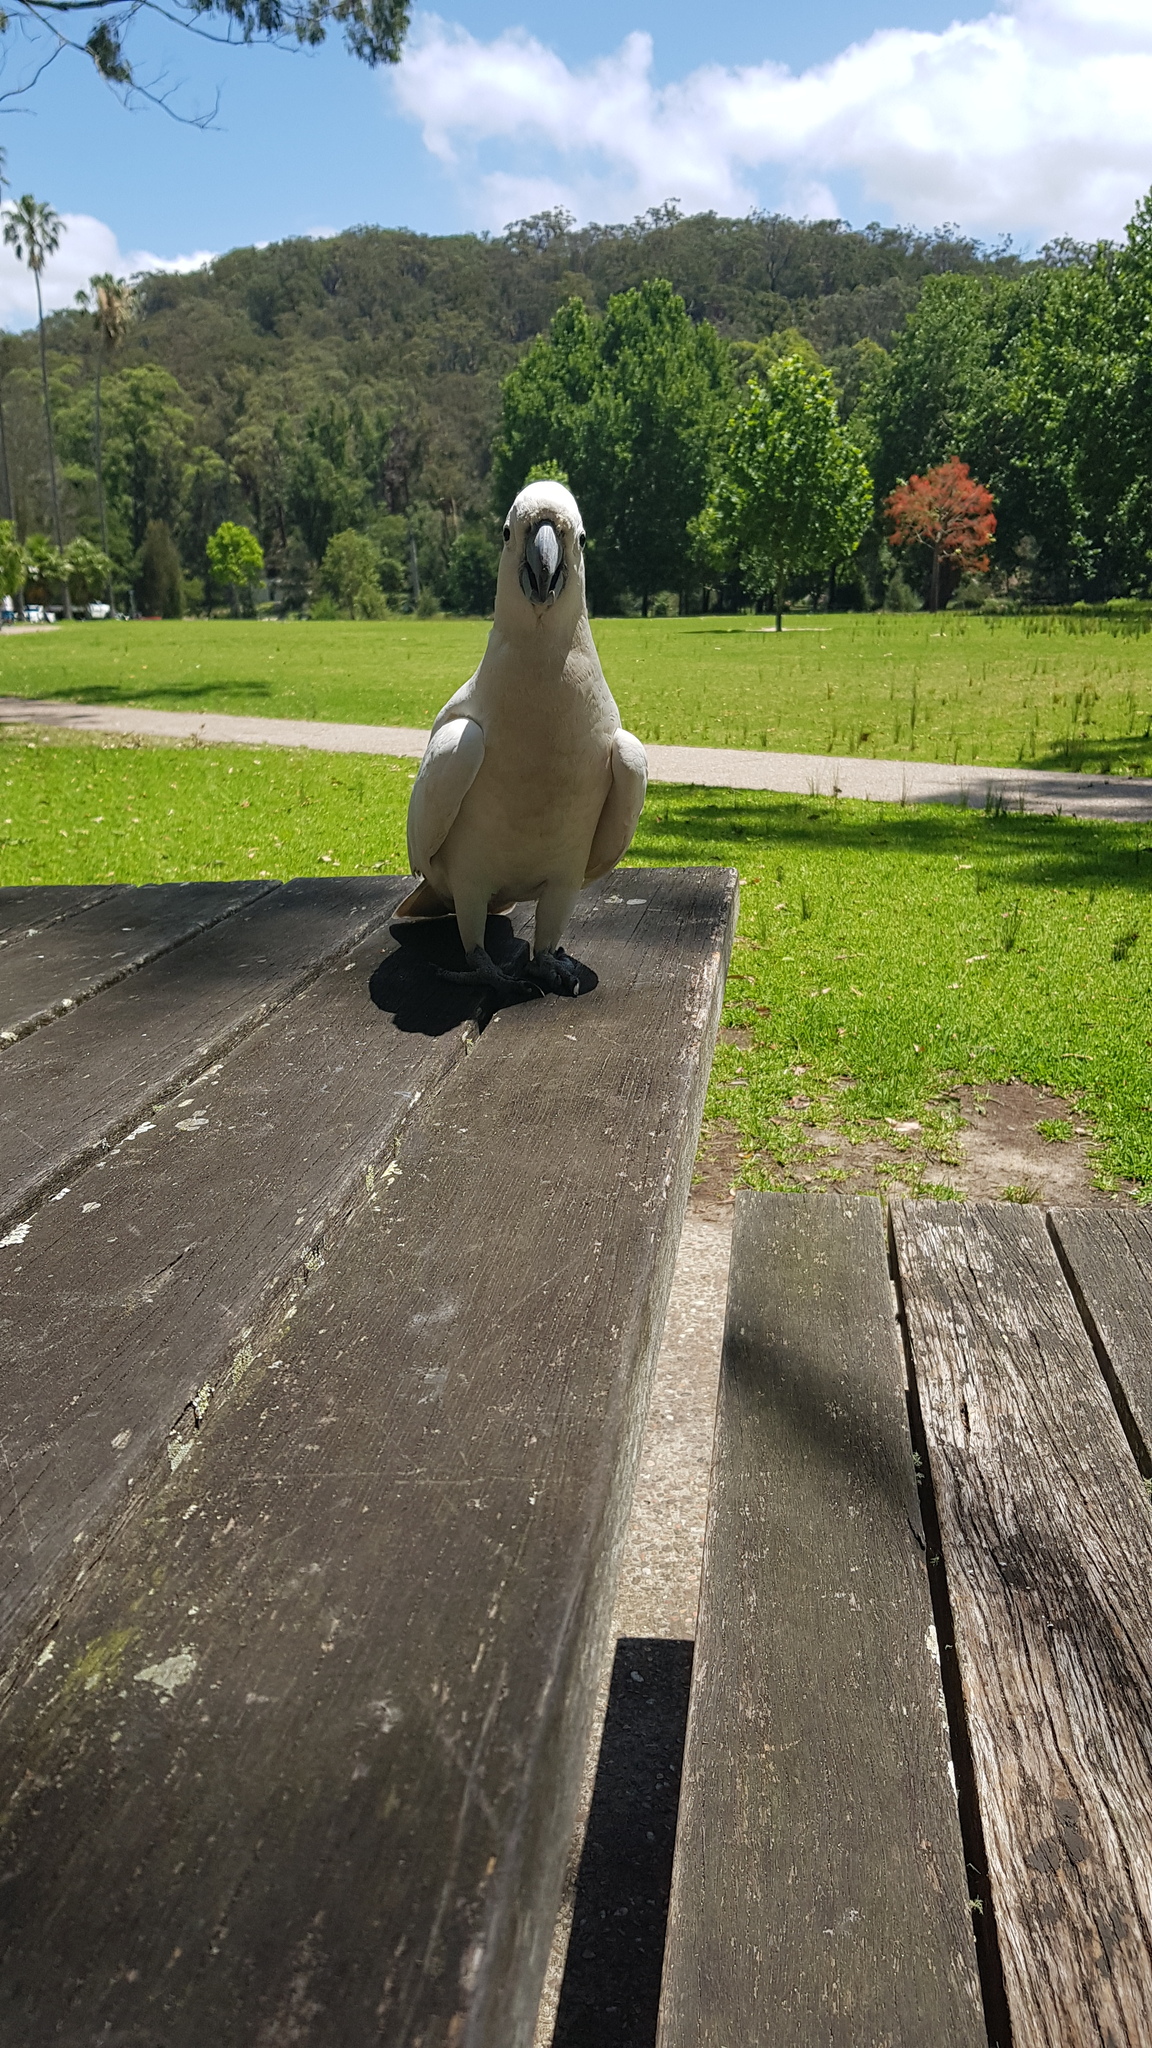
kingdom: Animalia
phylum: Chordata
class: Aves
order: Psittaciformes
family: Psittacidae
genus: Cacatua
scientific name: Cacatua galerita
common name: Sulphur-crested cockatoo
